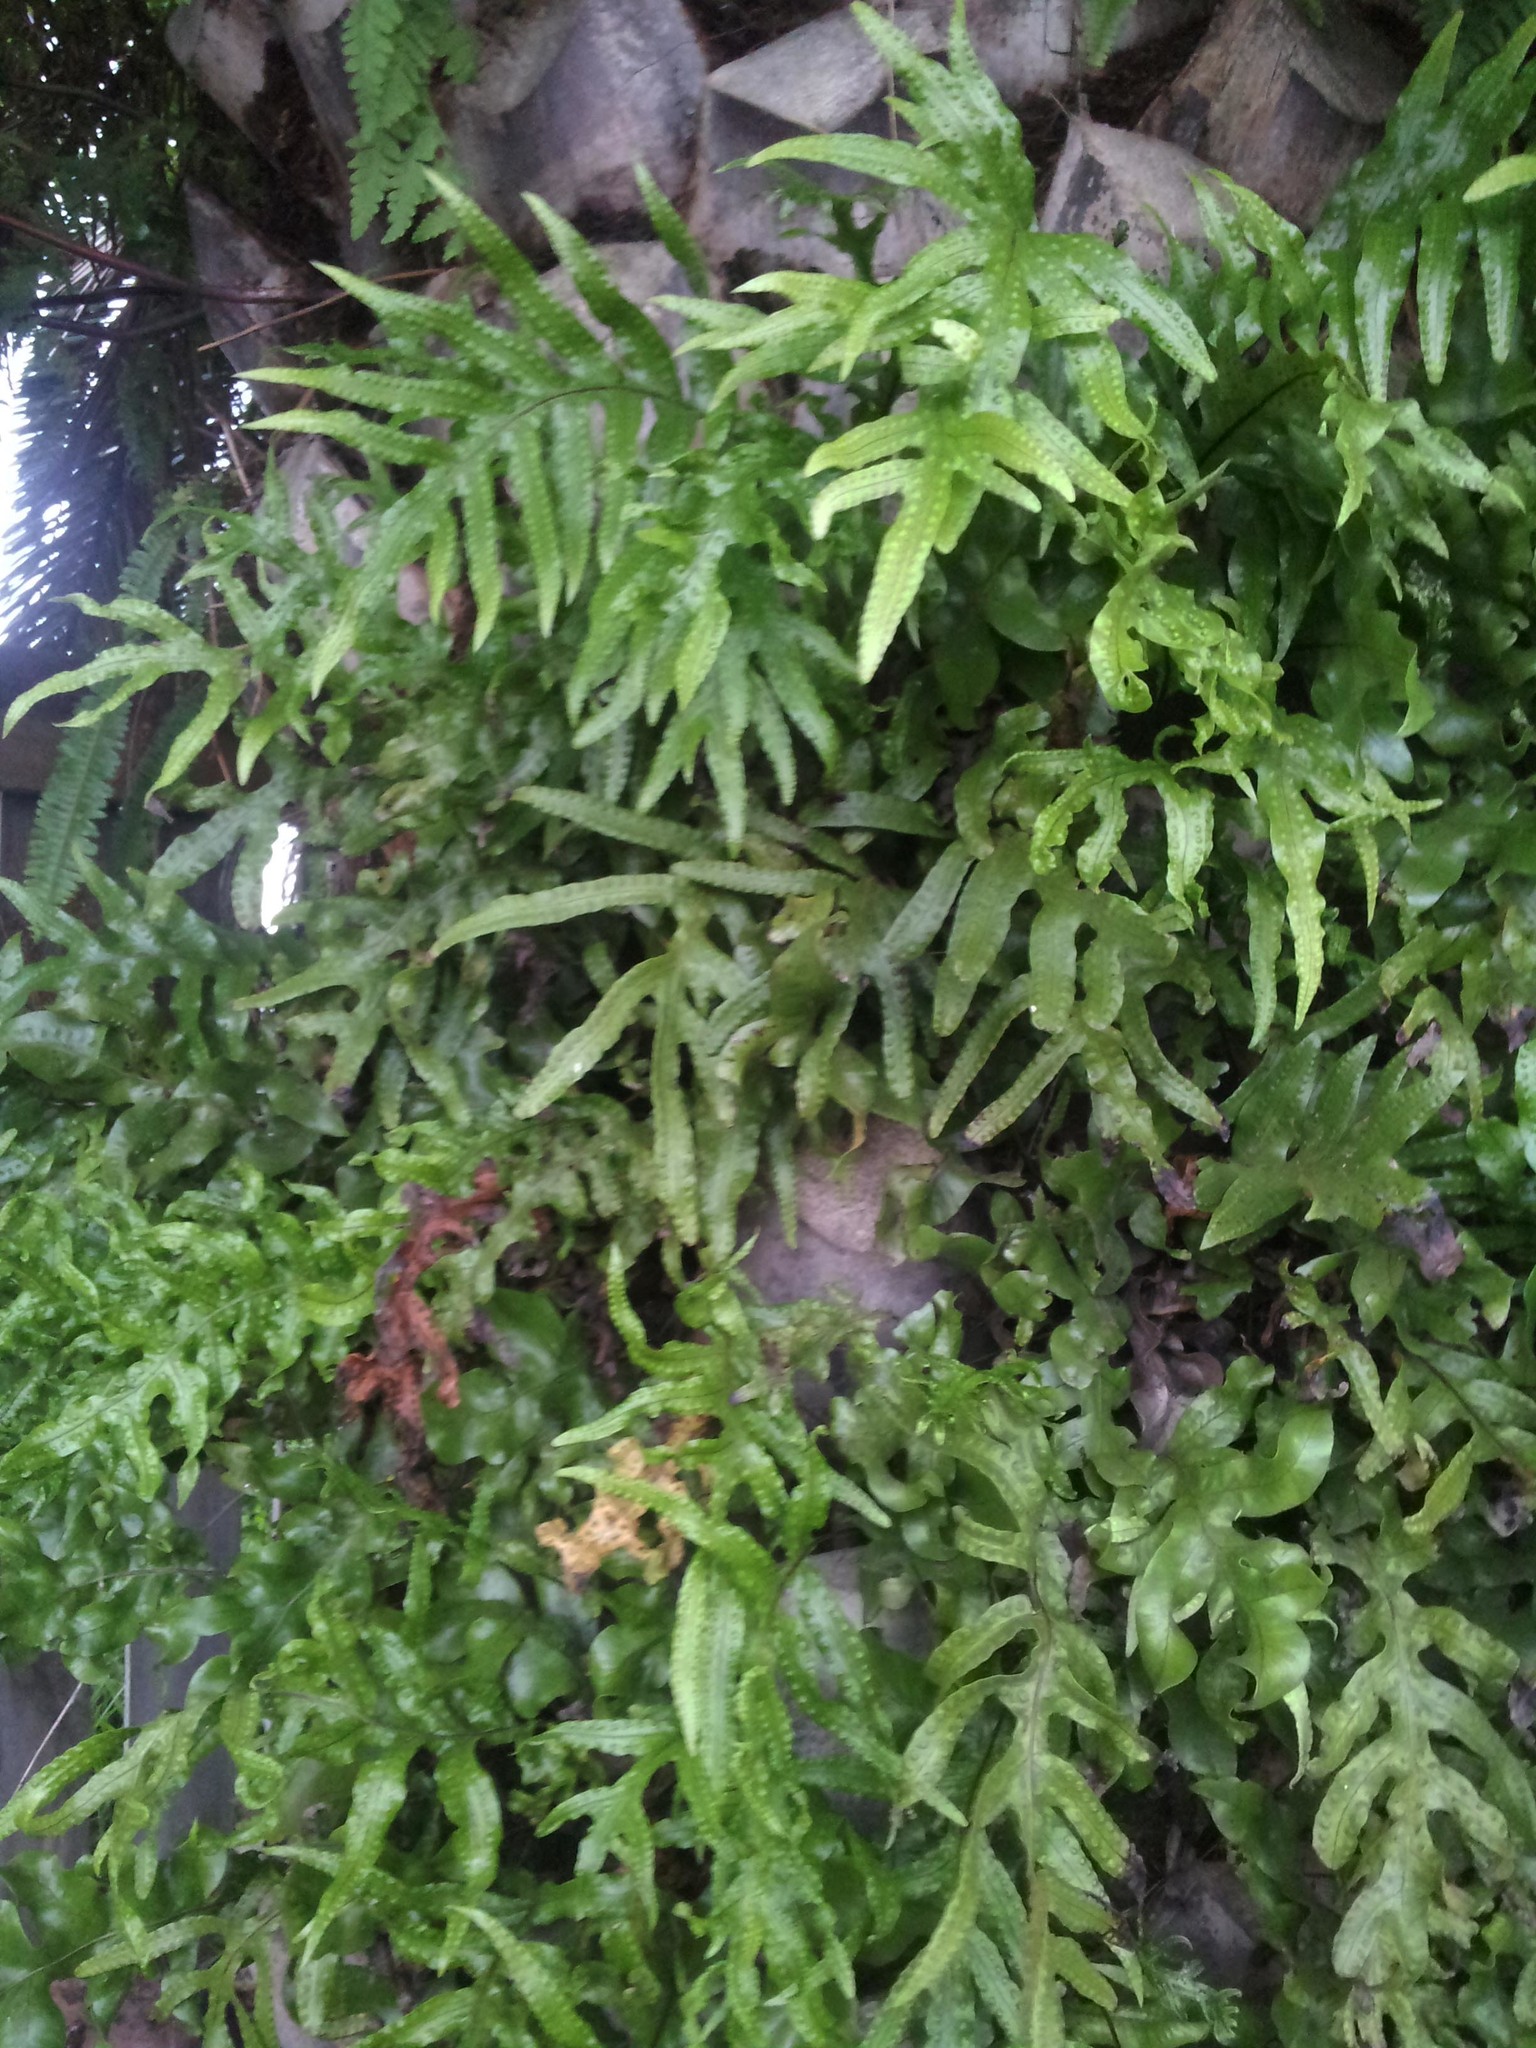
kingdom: Plantae
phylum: Tracheophyta
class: Polypodiopsida
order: Polypodiales
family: Polypodiaceae
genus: Lecanopteris
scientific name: Lecanopteris pustulata
